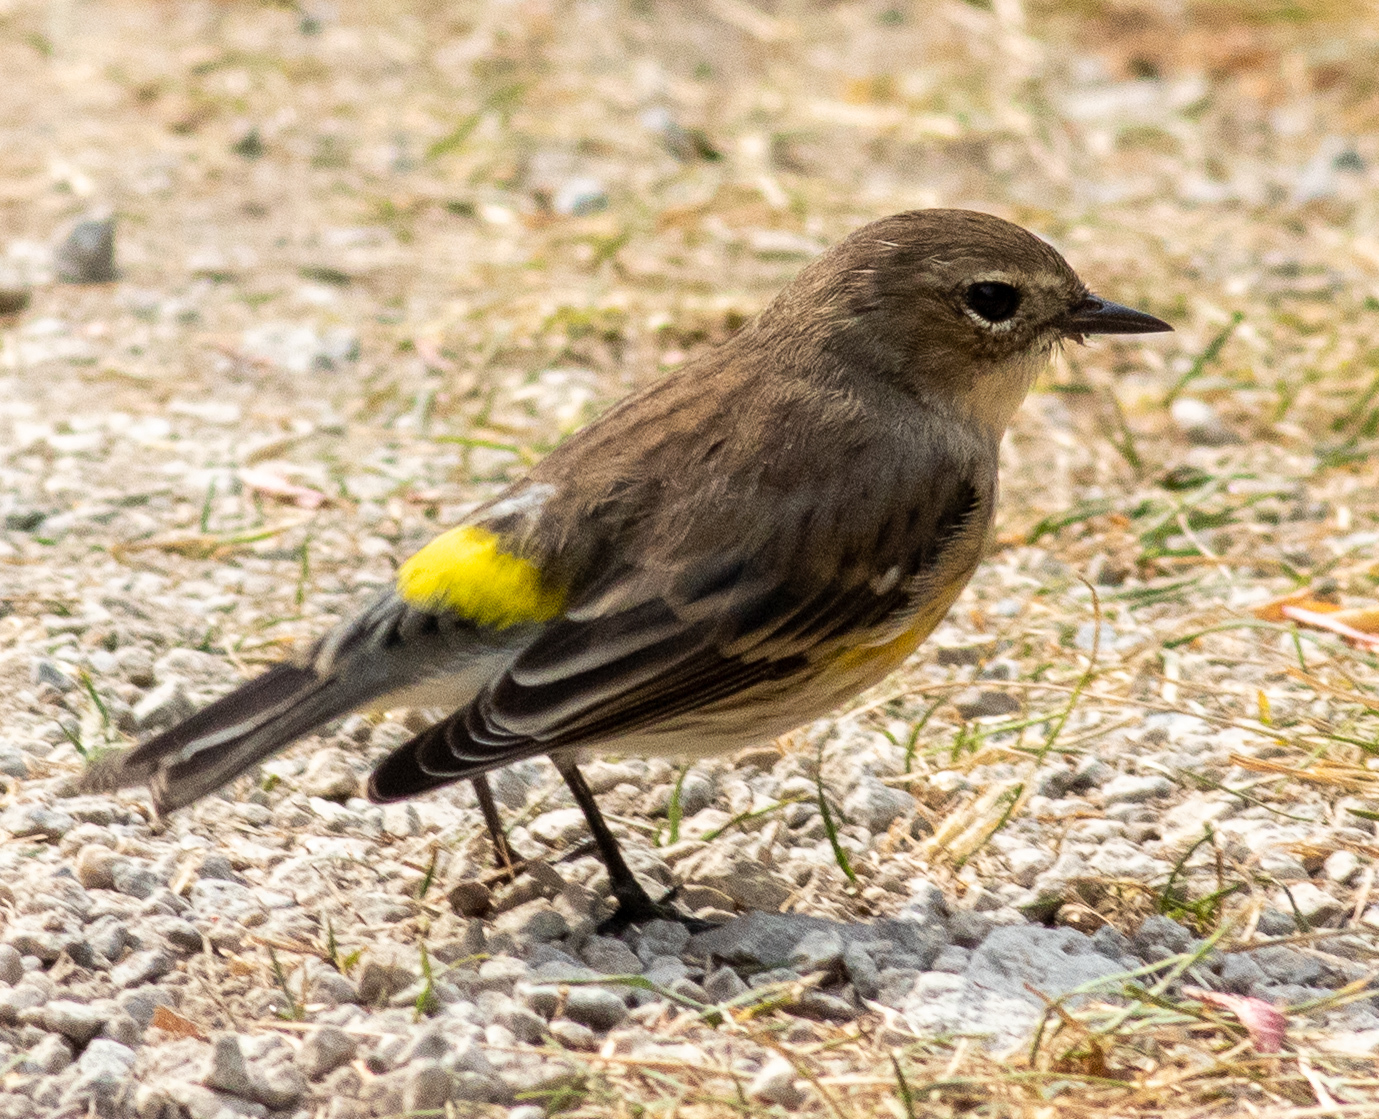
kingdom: Animalia
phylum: Chordata
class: Aves
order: Passeriformes
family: Parulidae
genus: Setophaga
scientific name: Setophaga coronata
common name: Myrtle warbler
